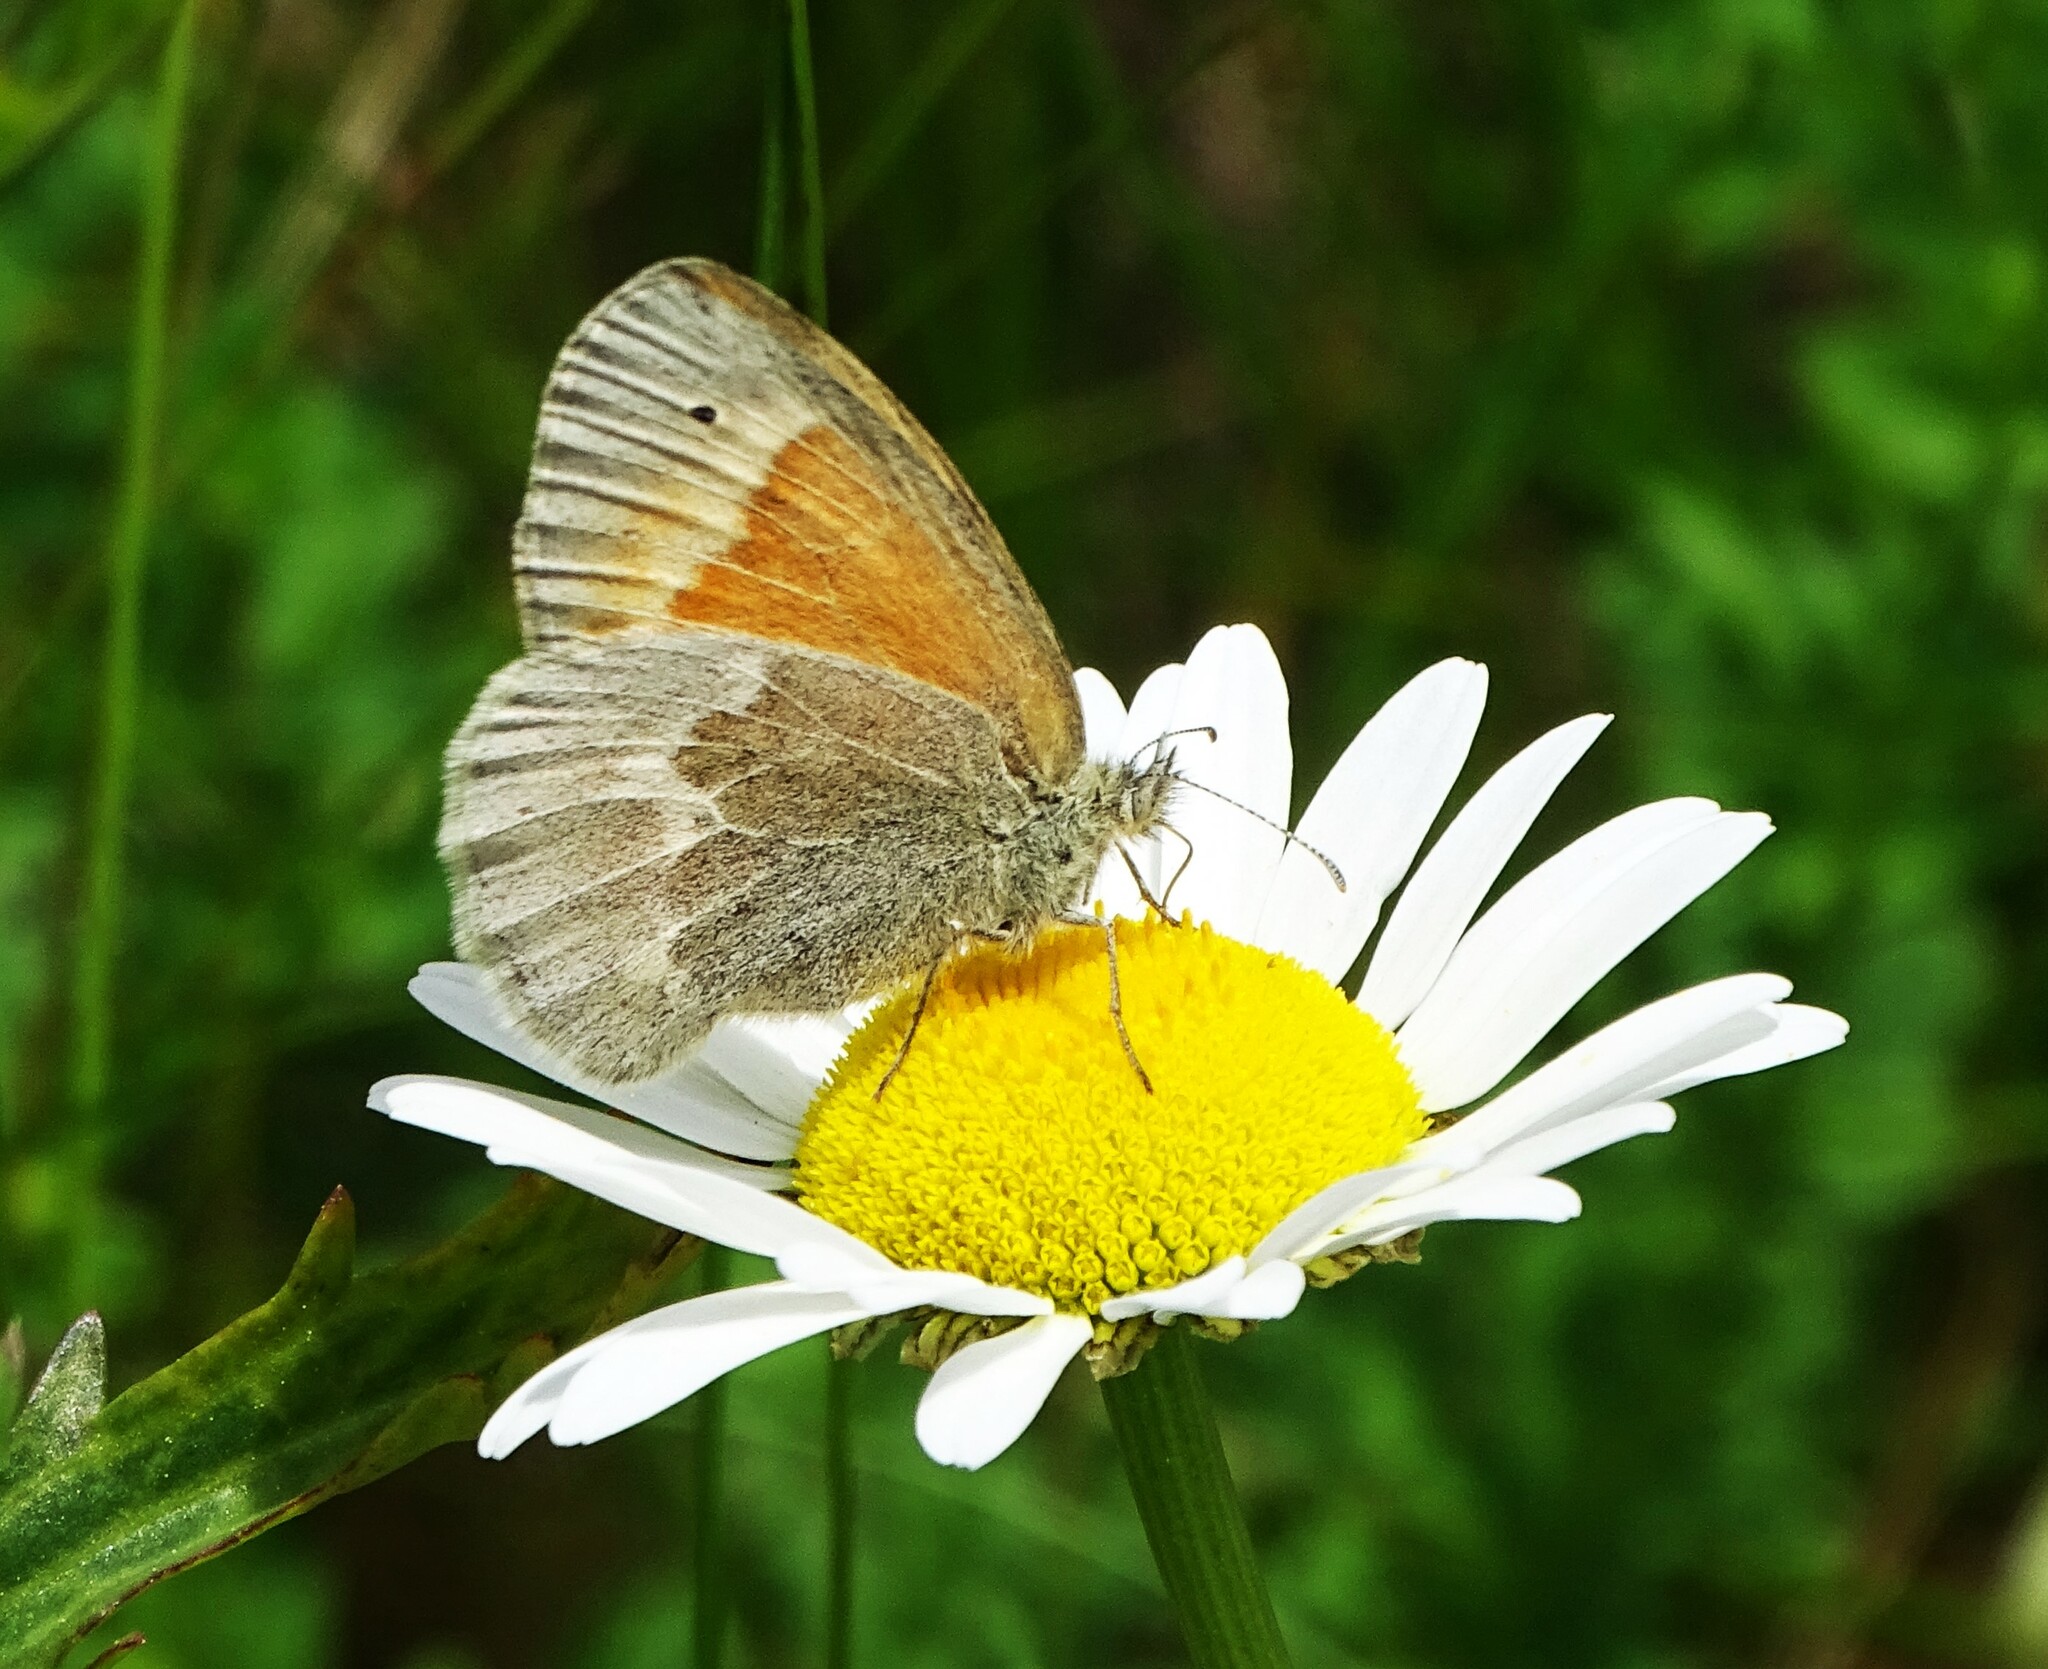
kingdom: Animalia
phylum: Arthropoda
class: Insecta
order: Lepidoptera
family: Nymphalidae
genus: Coenonympha
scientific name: Coenonympha california
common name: Common ringlet
